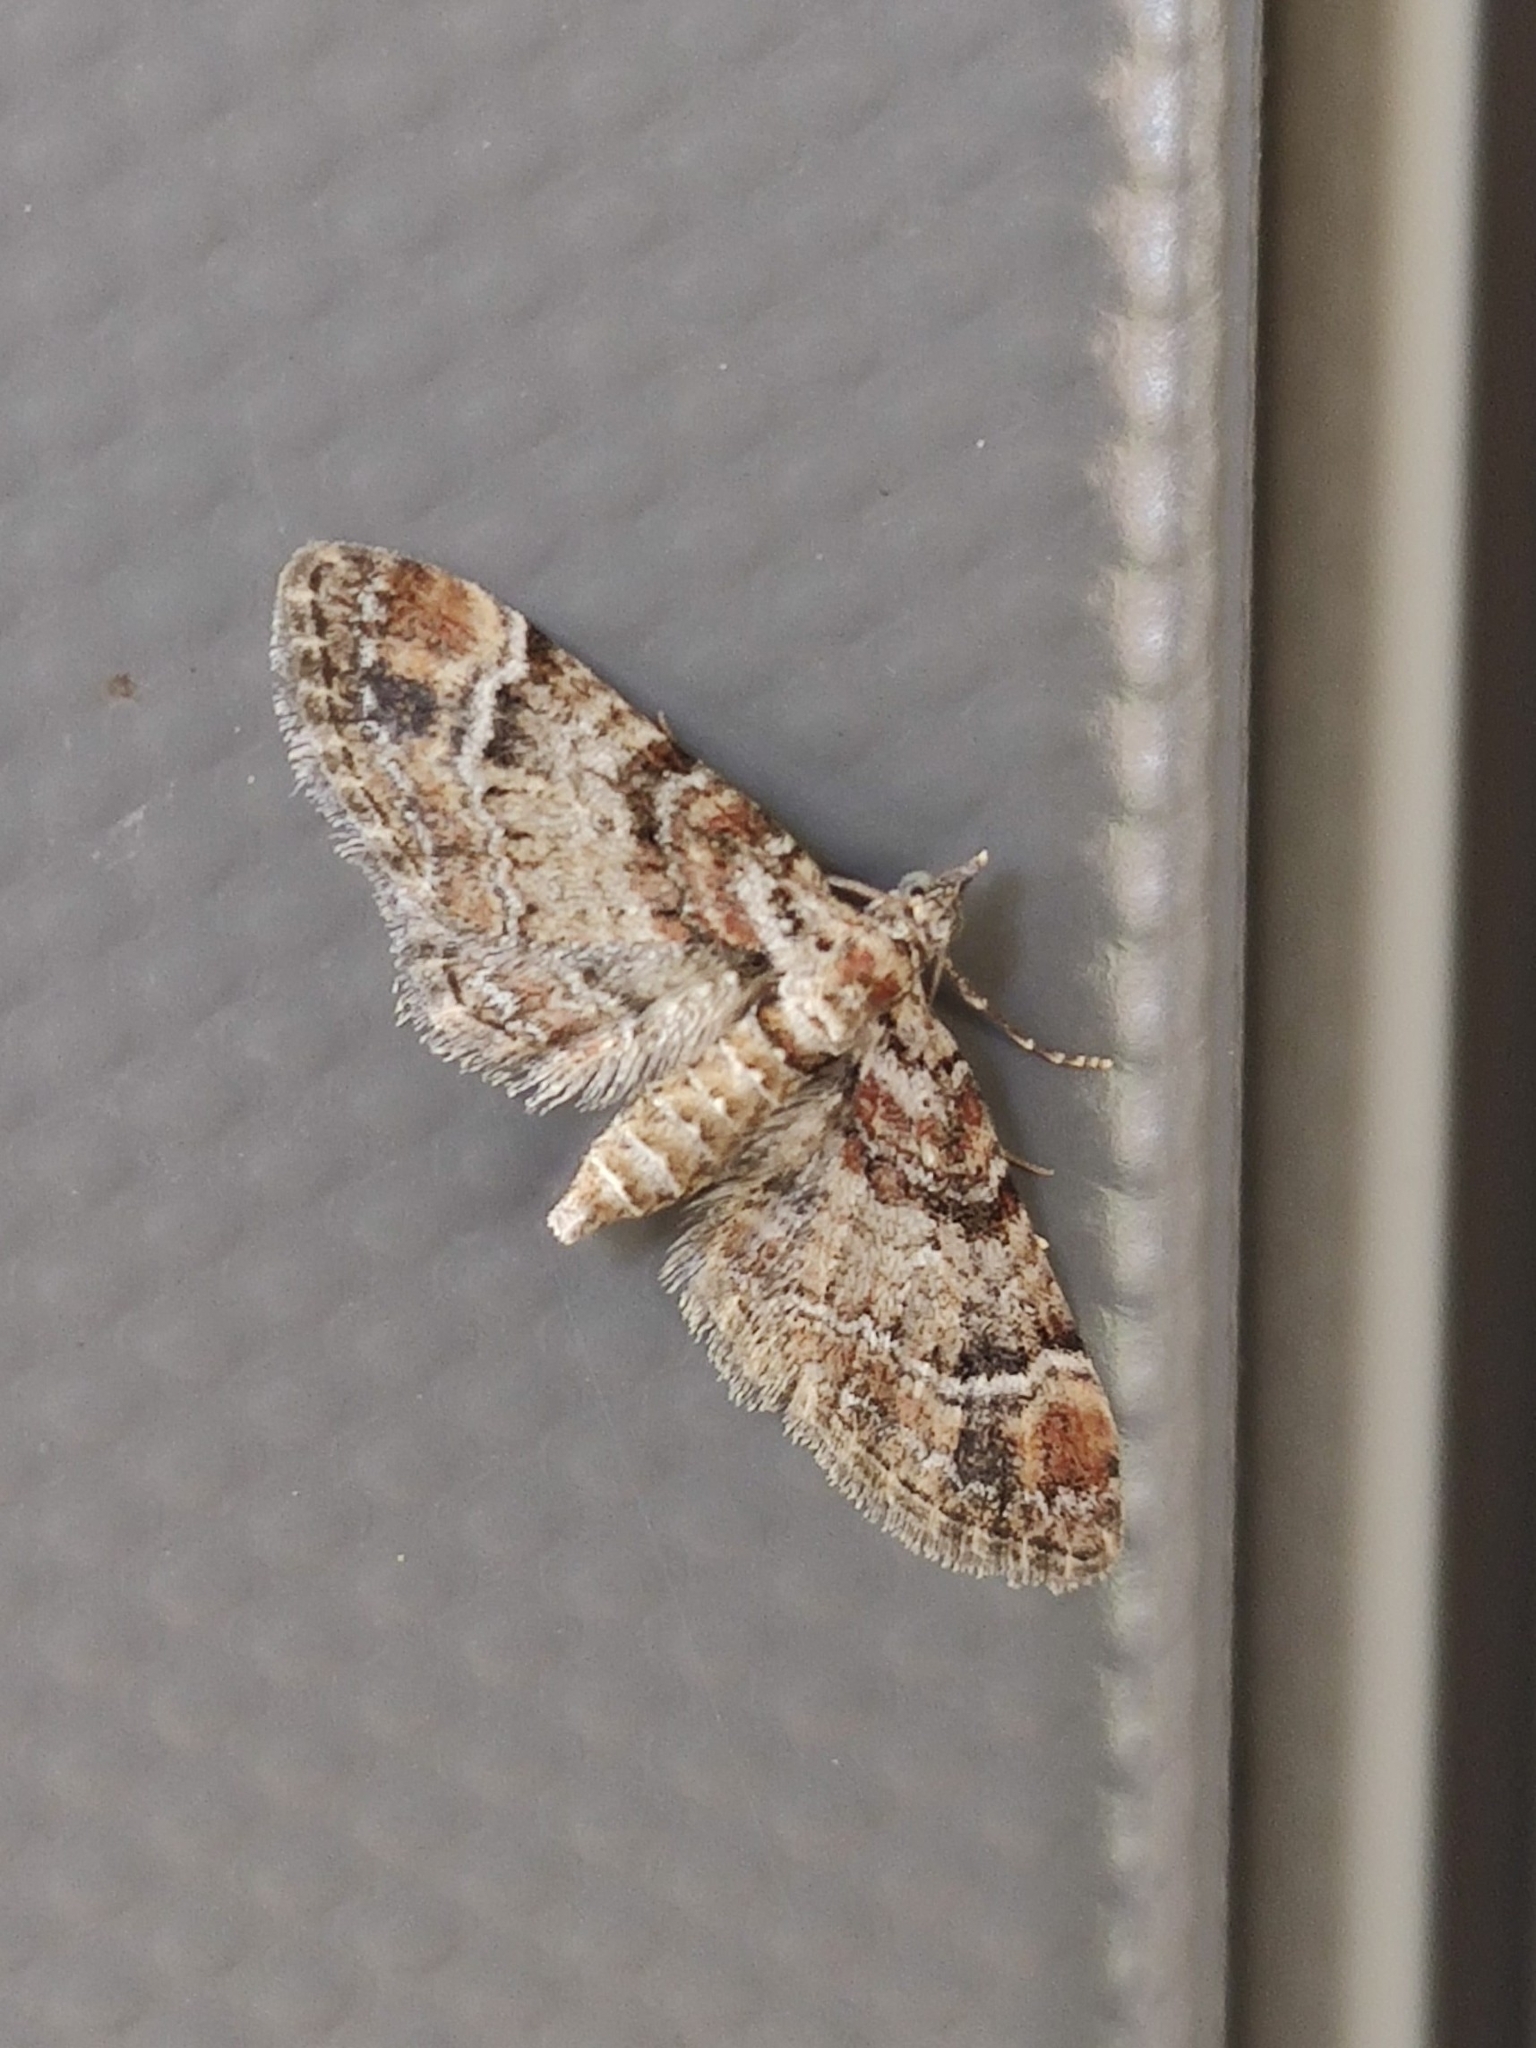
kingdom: Animalia
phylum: Arthropoda
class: Insecta
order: Lepidoptera
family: Geometridae
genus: Gymnoscelis
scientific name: Gymnoscelis rufifasciata
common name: Double-striped pug
